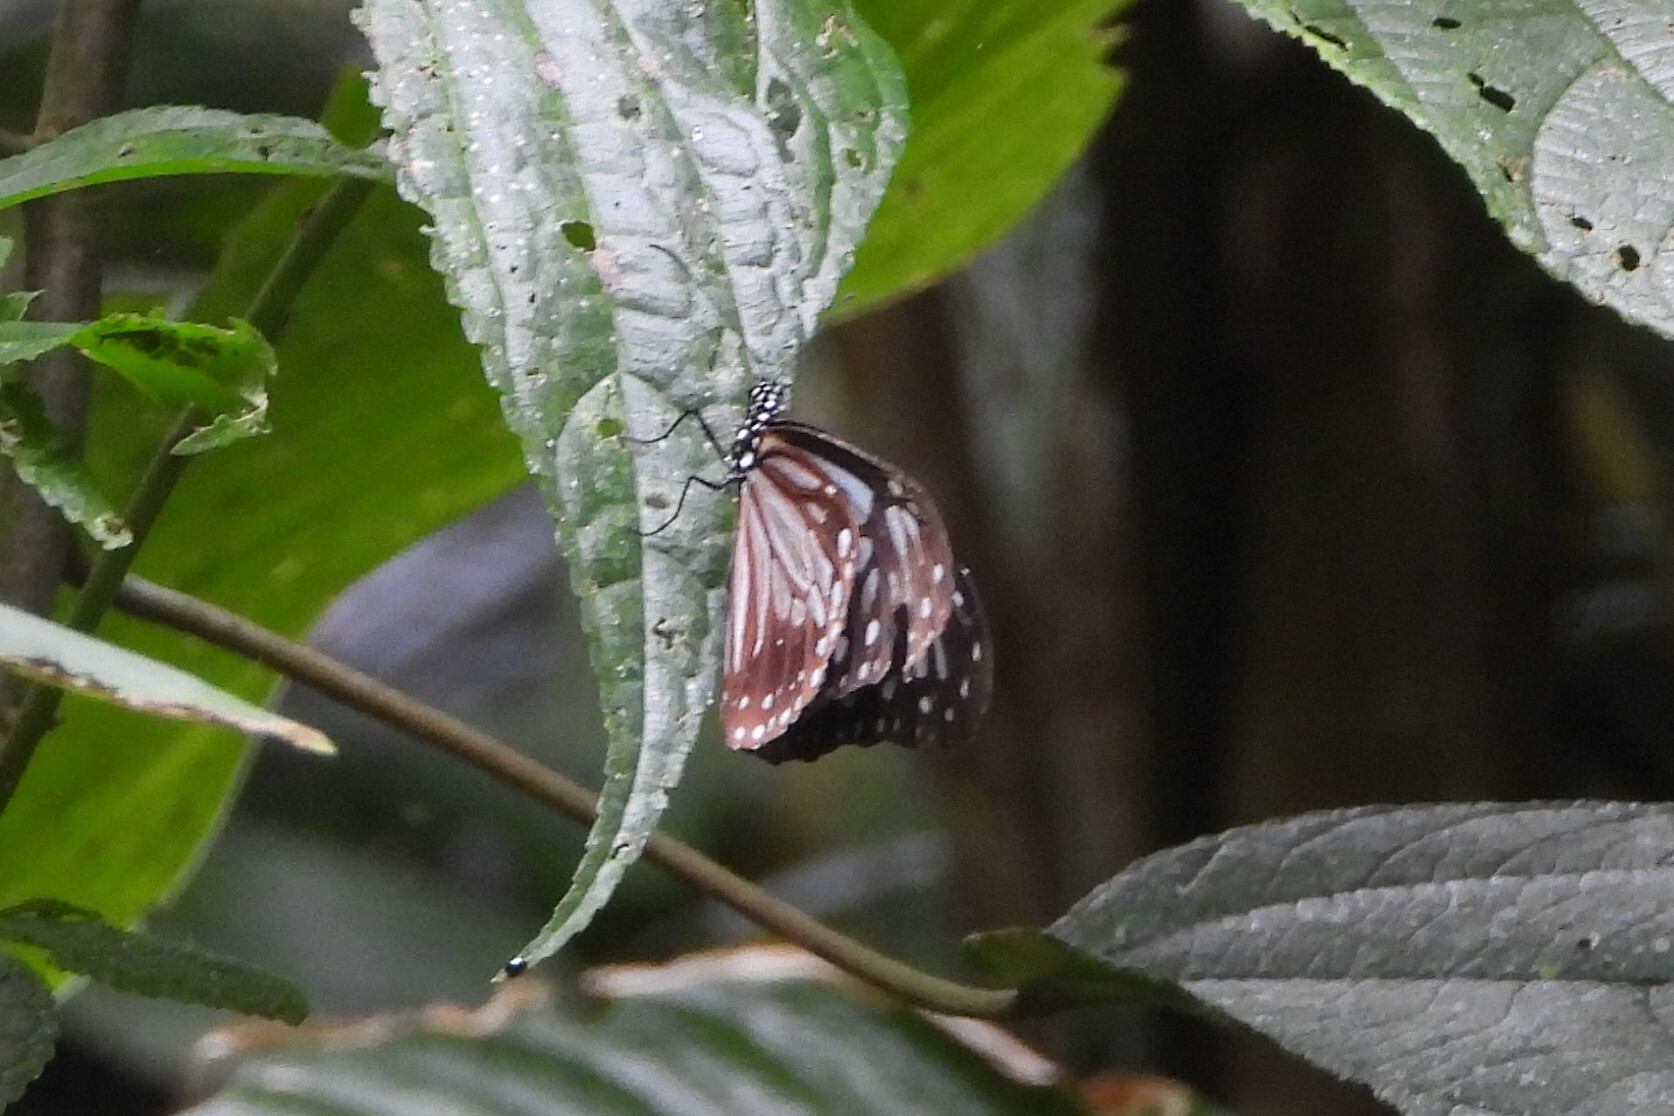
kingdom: Animalia
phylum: Arthropoda
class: Insecta
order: Lepidoptera
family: Nymphalidae
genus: Parantica
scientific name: Parantica melaneus
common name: Chocolate tiger
